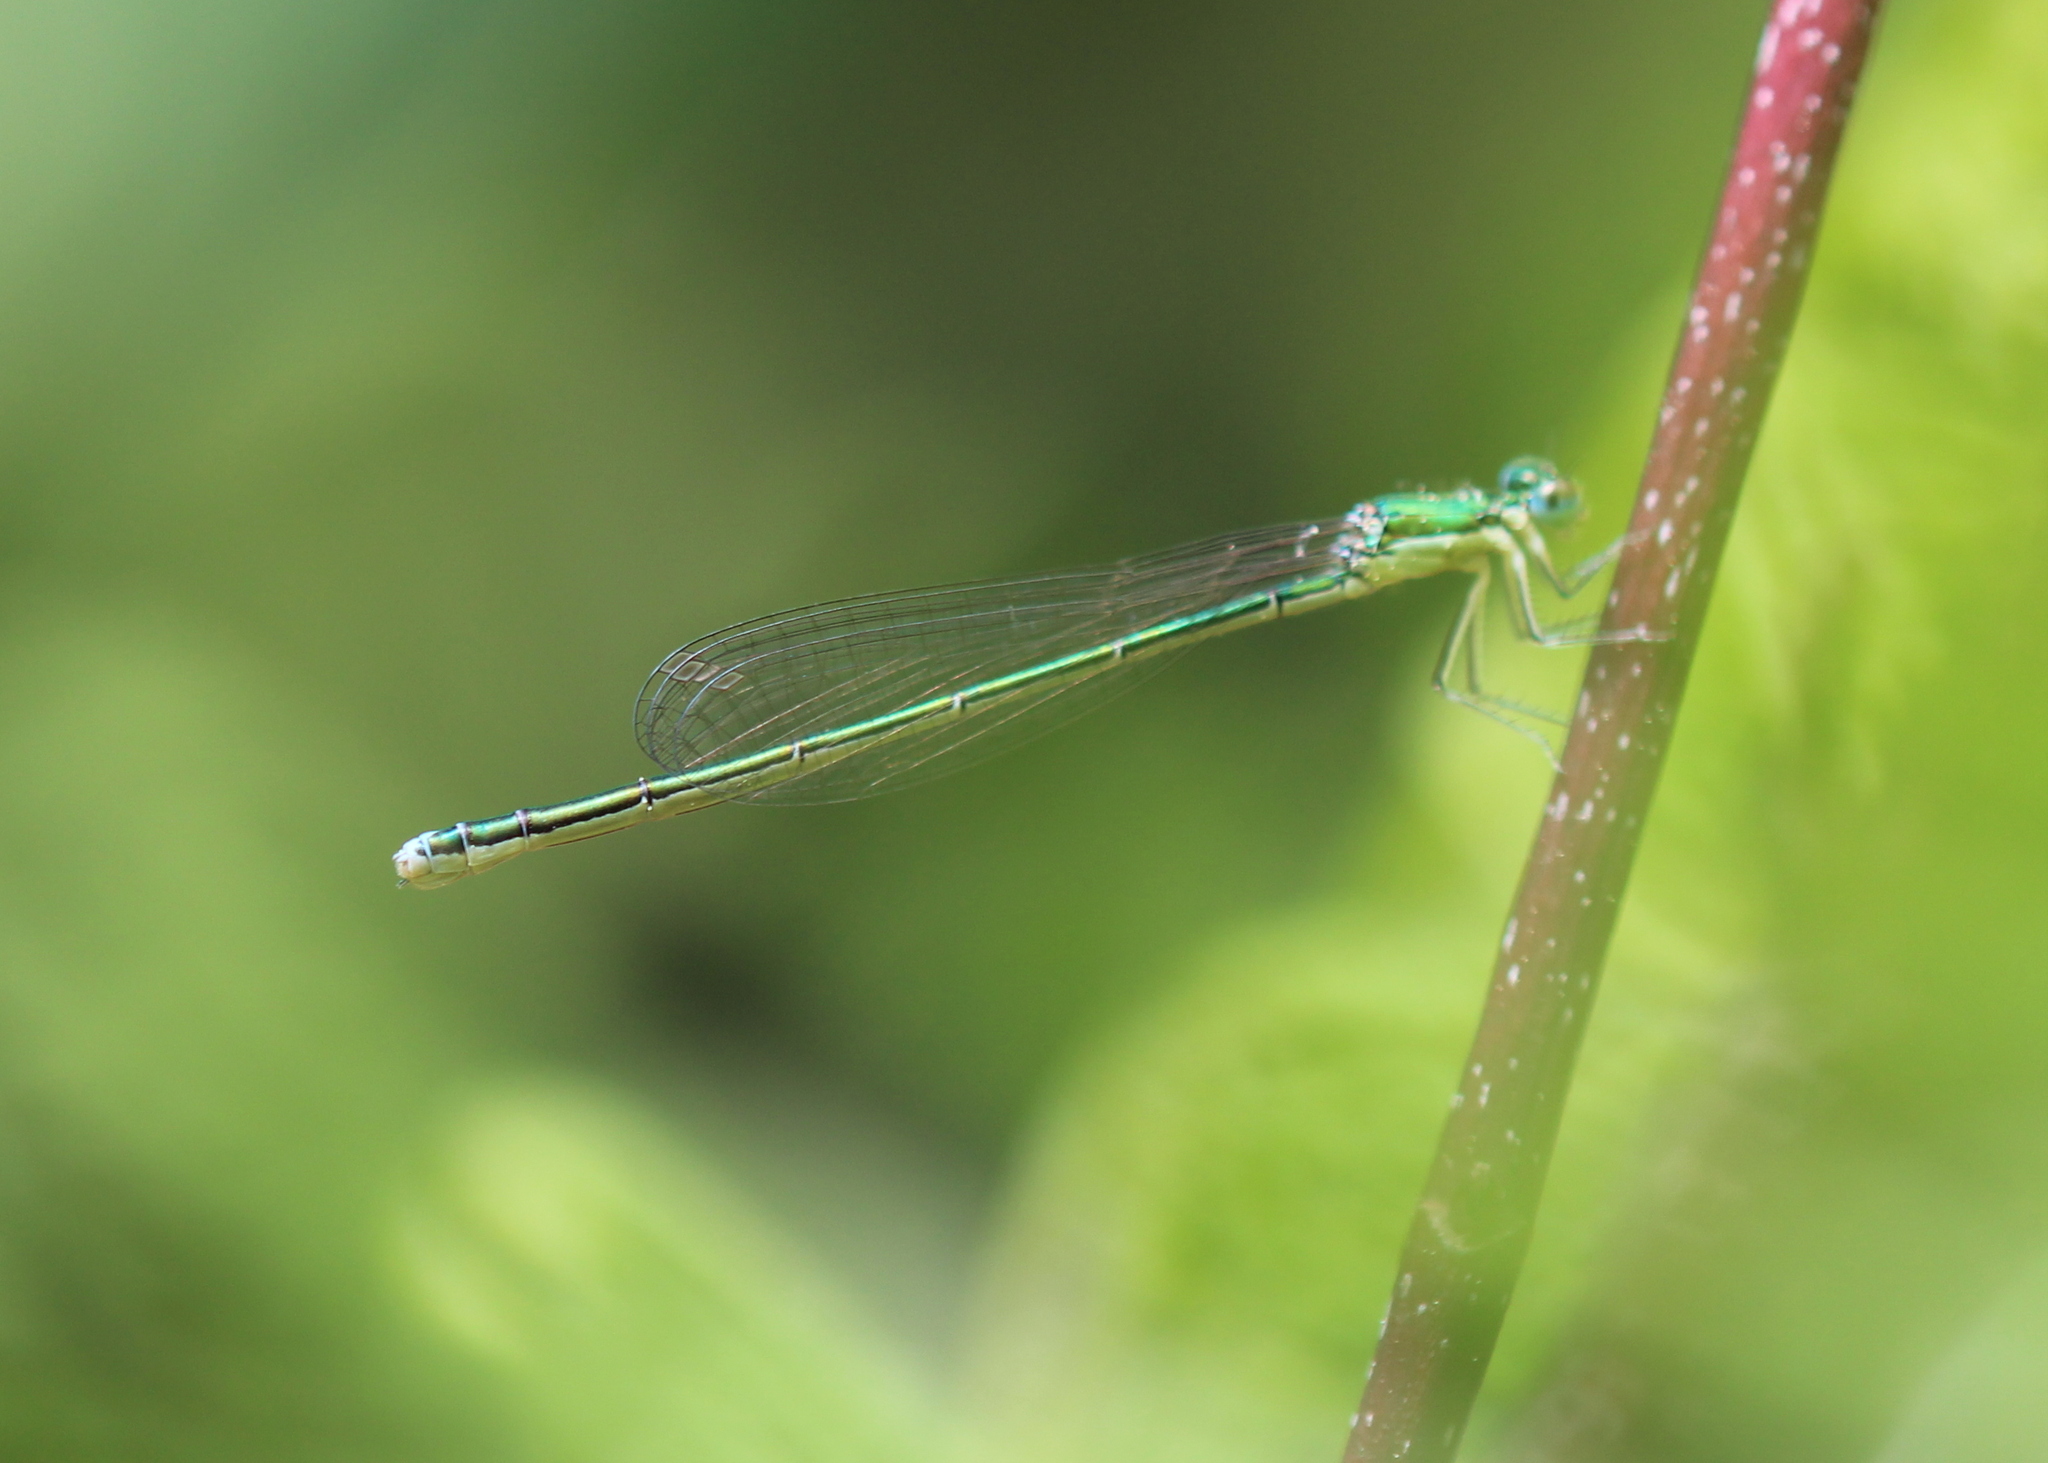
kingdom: Animalia
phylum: Arthropoda
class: Insecta
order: Odonata
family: Coenagrionidae
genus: Nehalennia
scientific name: Nehalennia irene
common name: Sedge sprite
